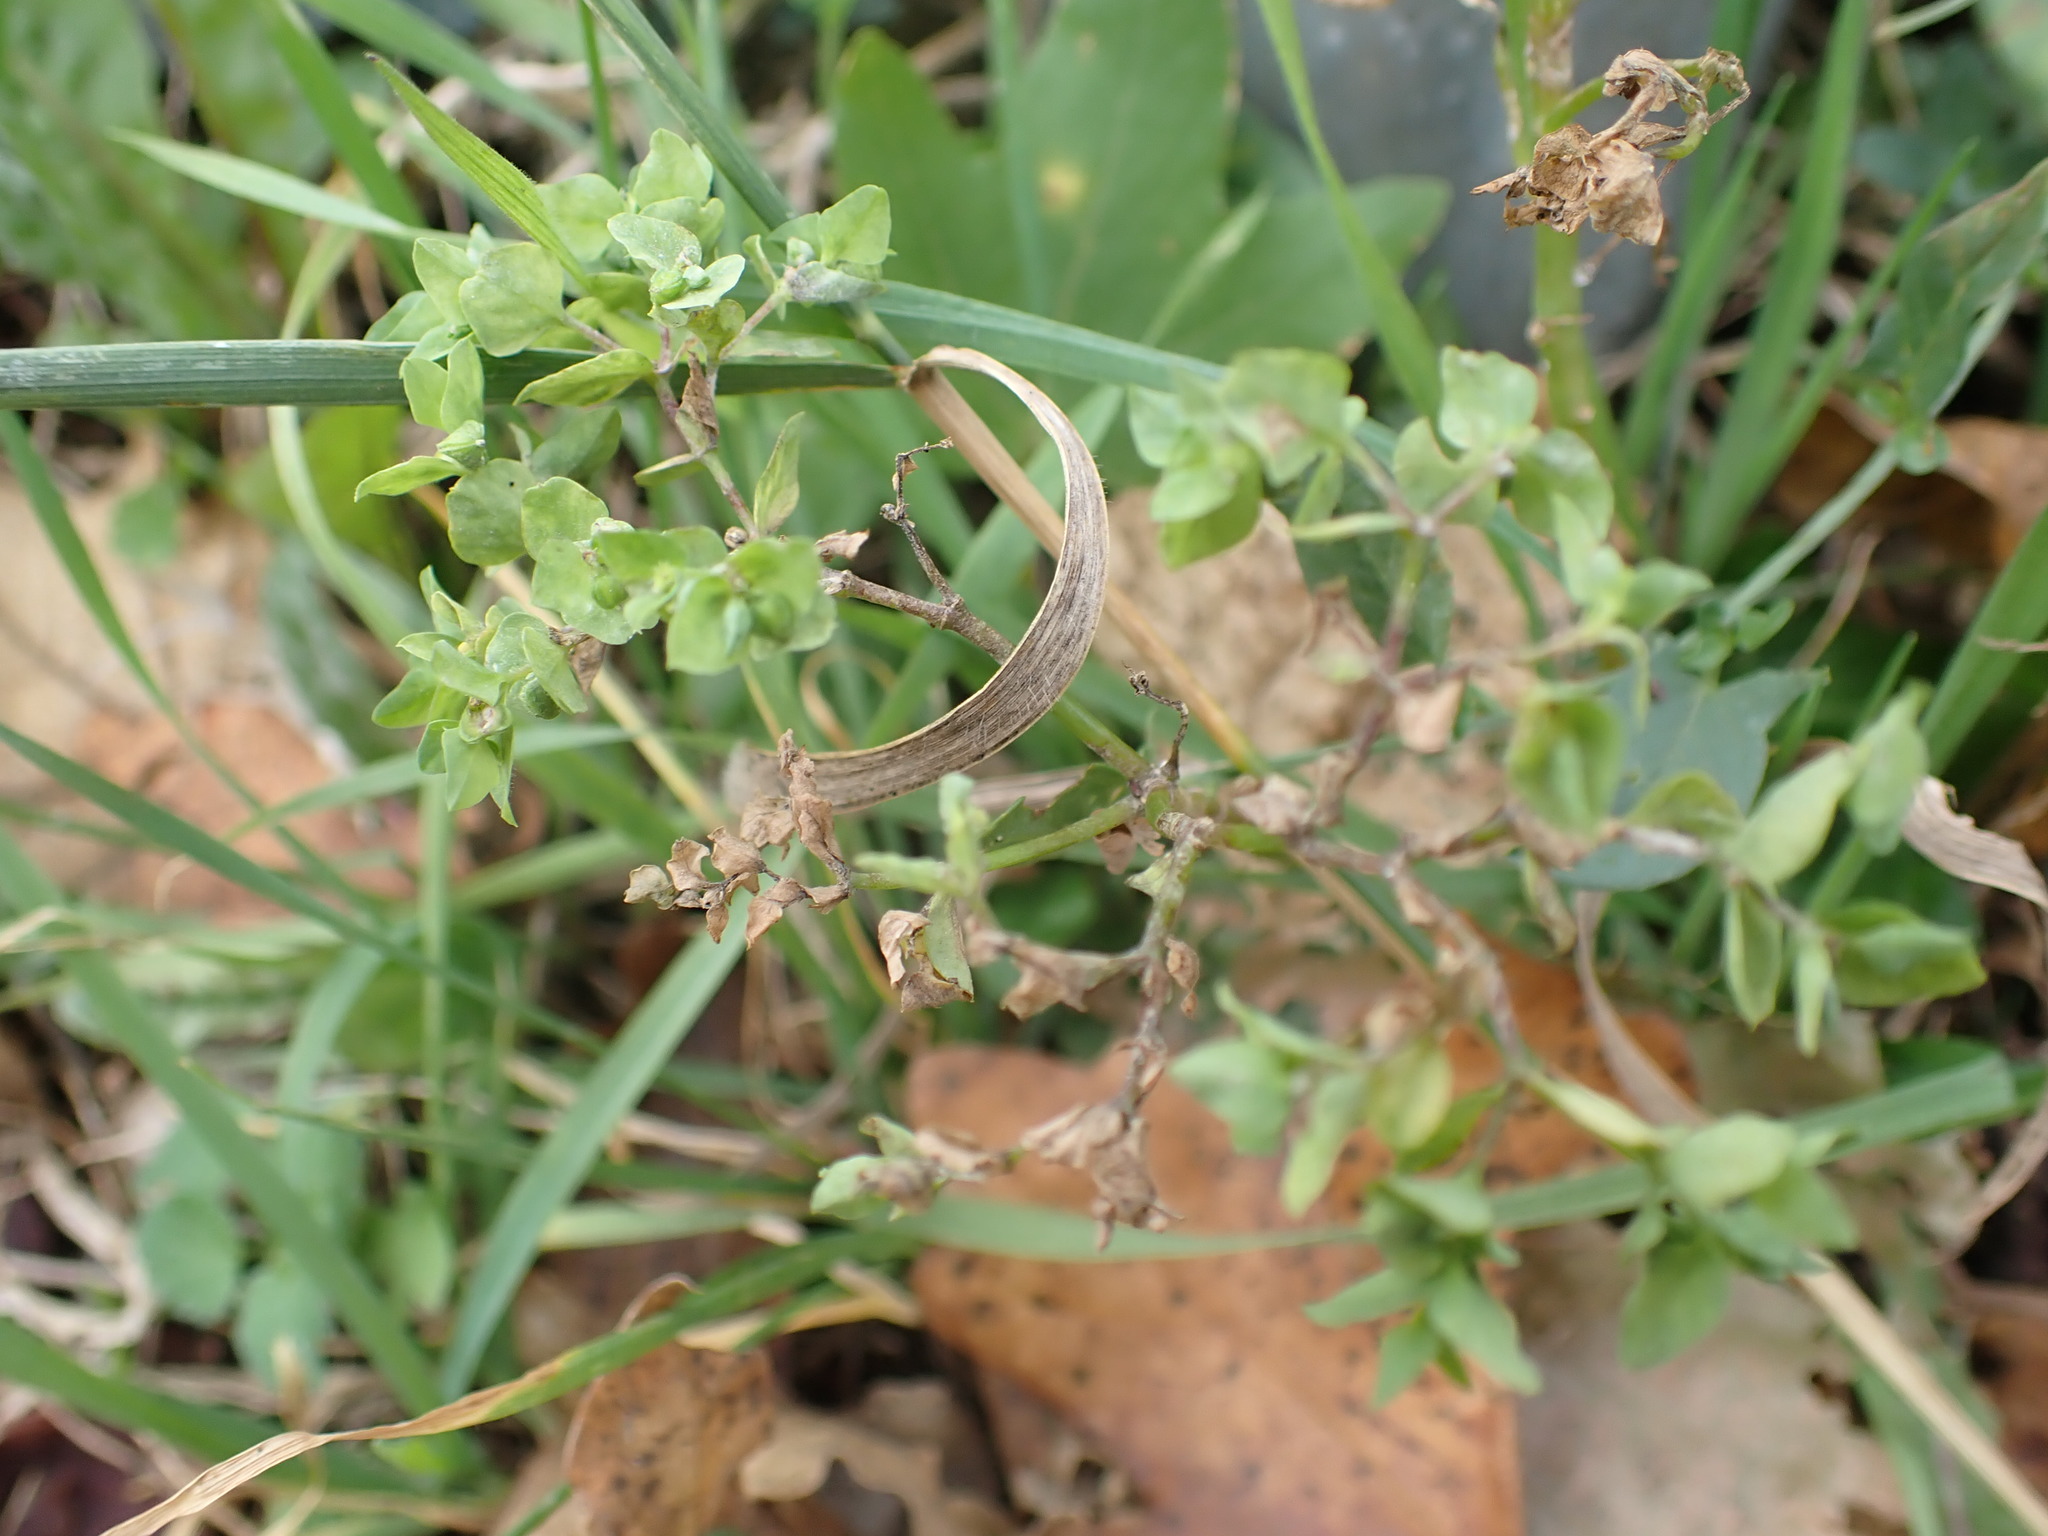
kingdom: Plantae
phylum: Tracheophyta
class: Magnoliopsida
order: Malpighiales
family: Euphorbiaceae
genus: Euphorbia
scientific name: Euphorbia peplus
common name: Petty spurge
